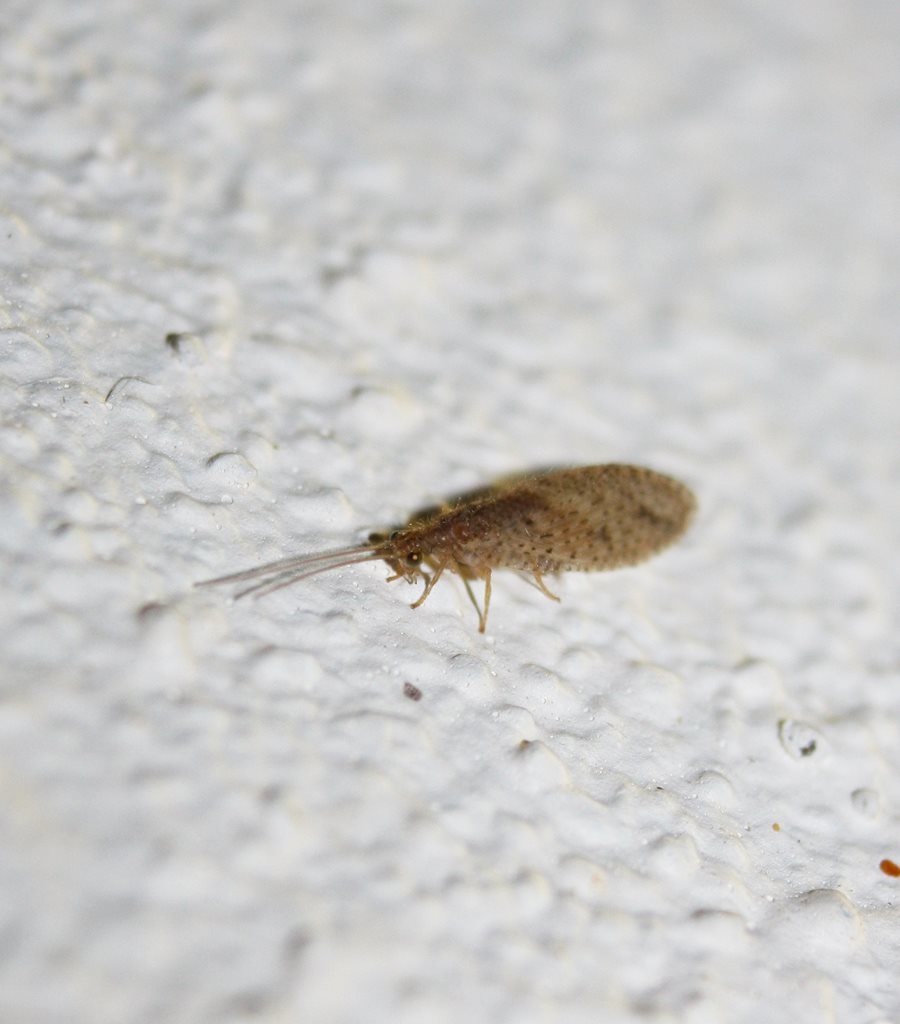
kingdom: Animalia
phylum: Arthropoda
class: Insecta
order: Neuroptera
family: Hemerobiidae
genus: Micromus
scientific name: Micromus tasmaniae
